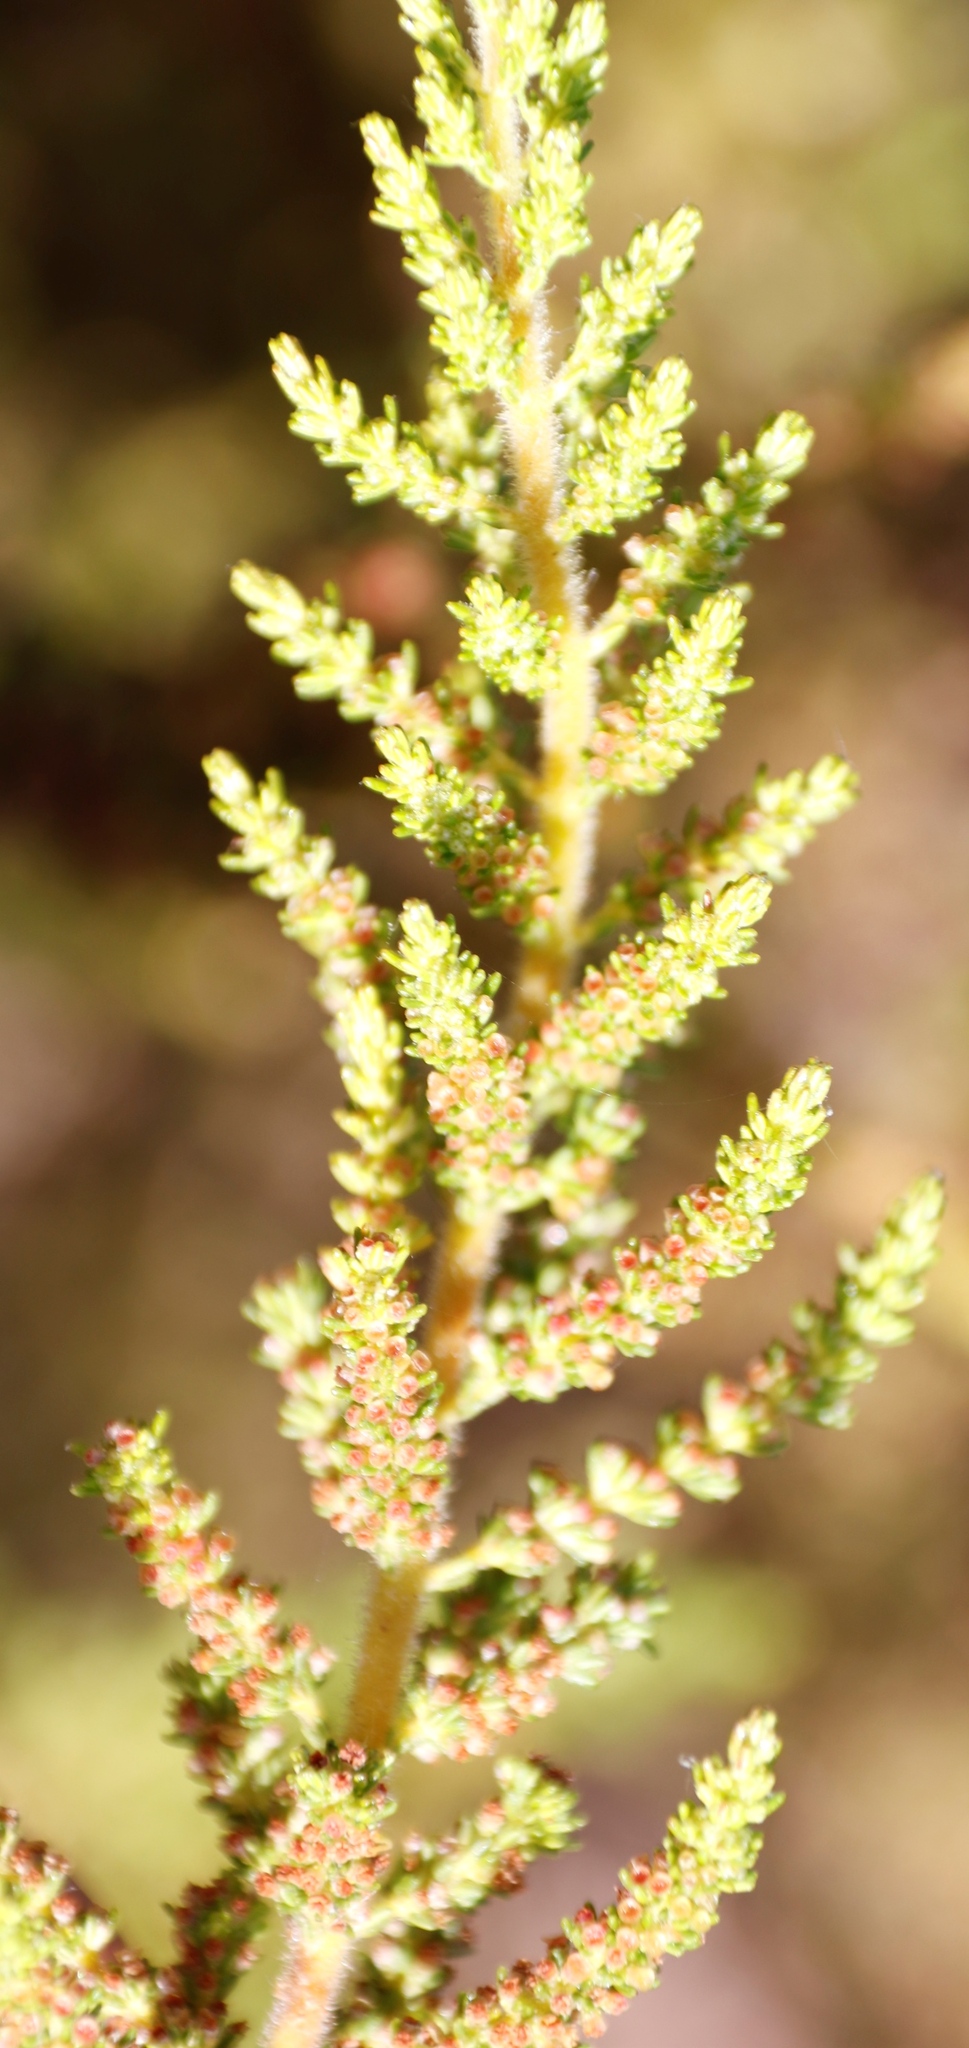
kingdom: Plantae
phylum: Tracheophyta
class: Magnoliopsida
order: Ericales
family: Ericaceae
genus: Erica
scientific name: Erica muscosa
